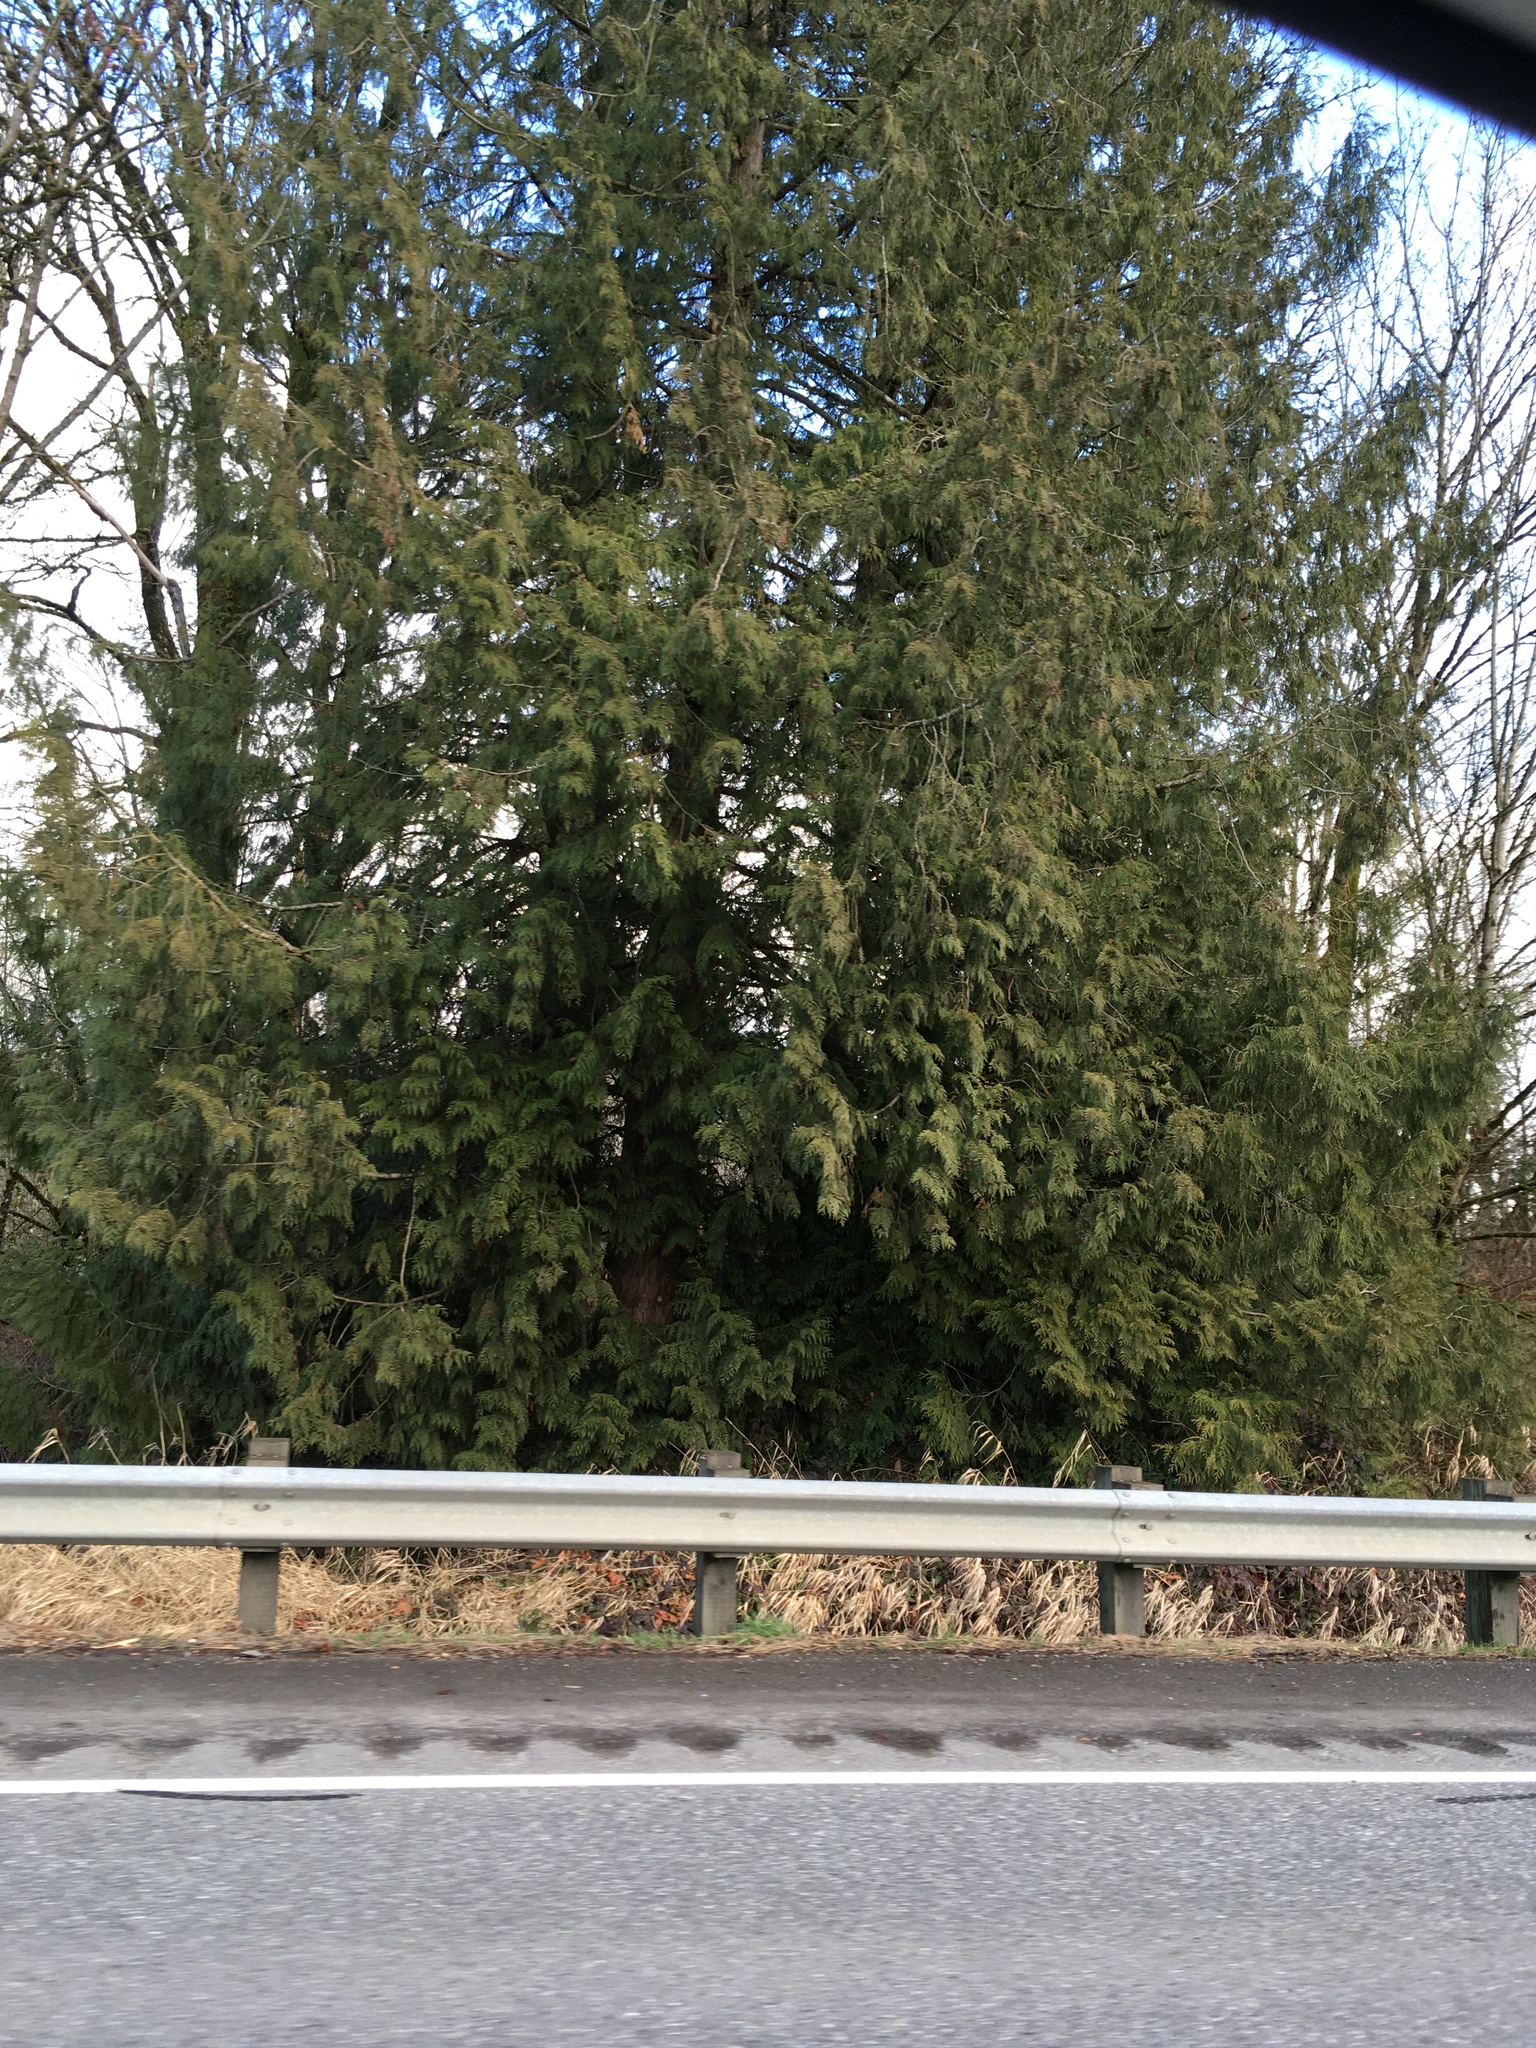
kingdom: Plantae
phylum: Tracheophyta
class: Pinopsida
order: Pinales
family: Cupressaceae
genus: Thuja
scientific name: Thuja plicata
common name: Western red-cedar
